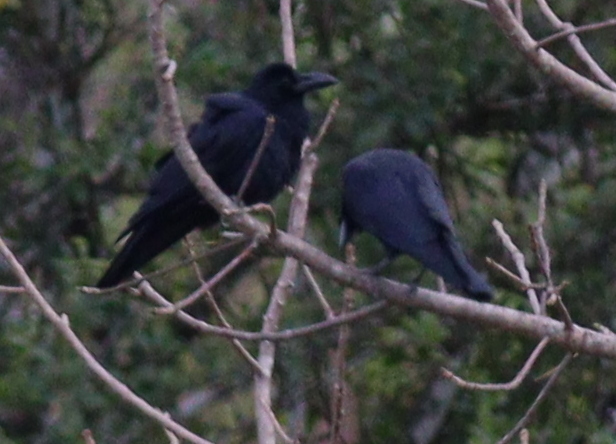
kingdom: Animalia
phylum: Chordata
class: Aves
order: Passeriformes
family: Corvidae
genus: Corvus
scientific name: Corvus macrorhynchos
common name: Large-billed crow
